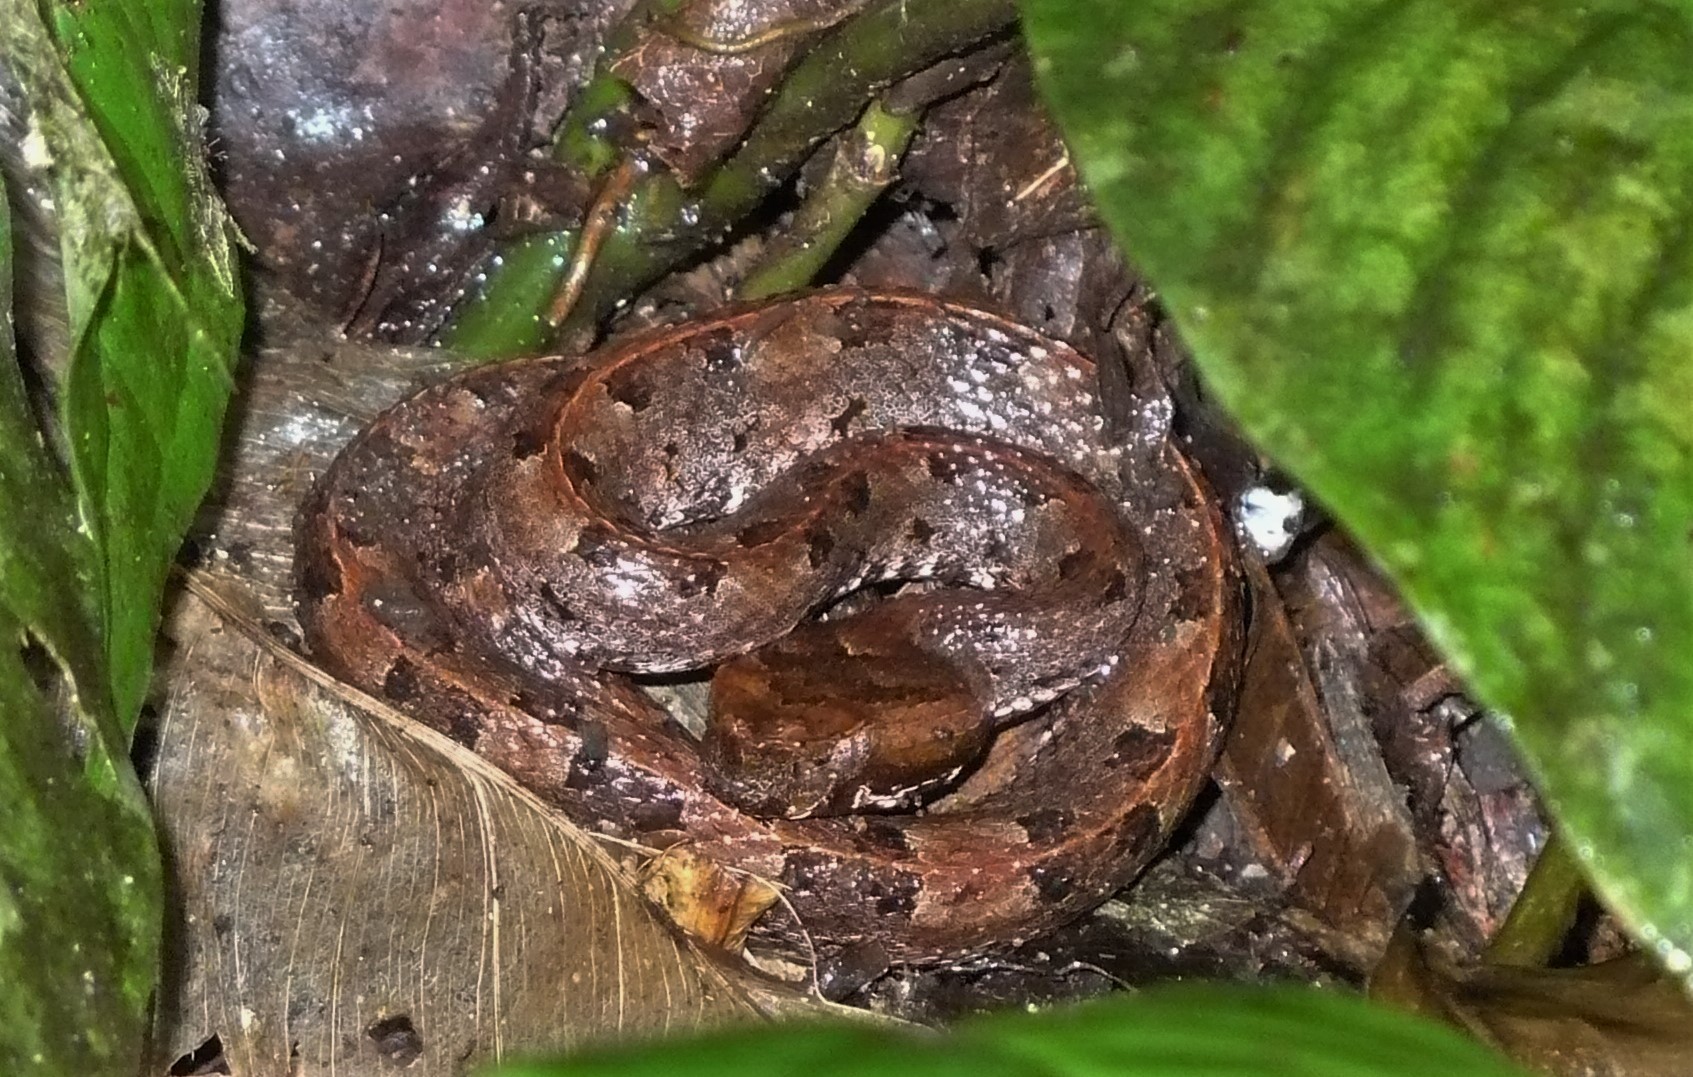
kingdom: Animalia
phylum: Chordata
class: Squamata
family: Viperidae
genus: Porthidium
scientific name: Porthidium nasutum
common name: Hognosed pit viper
